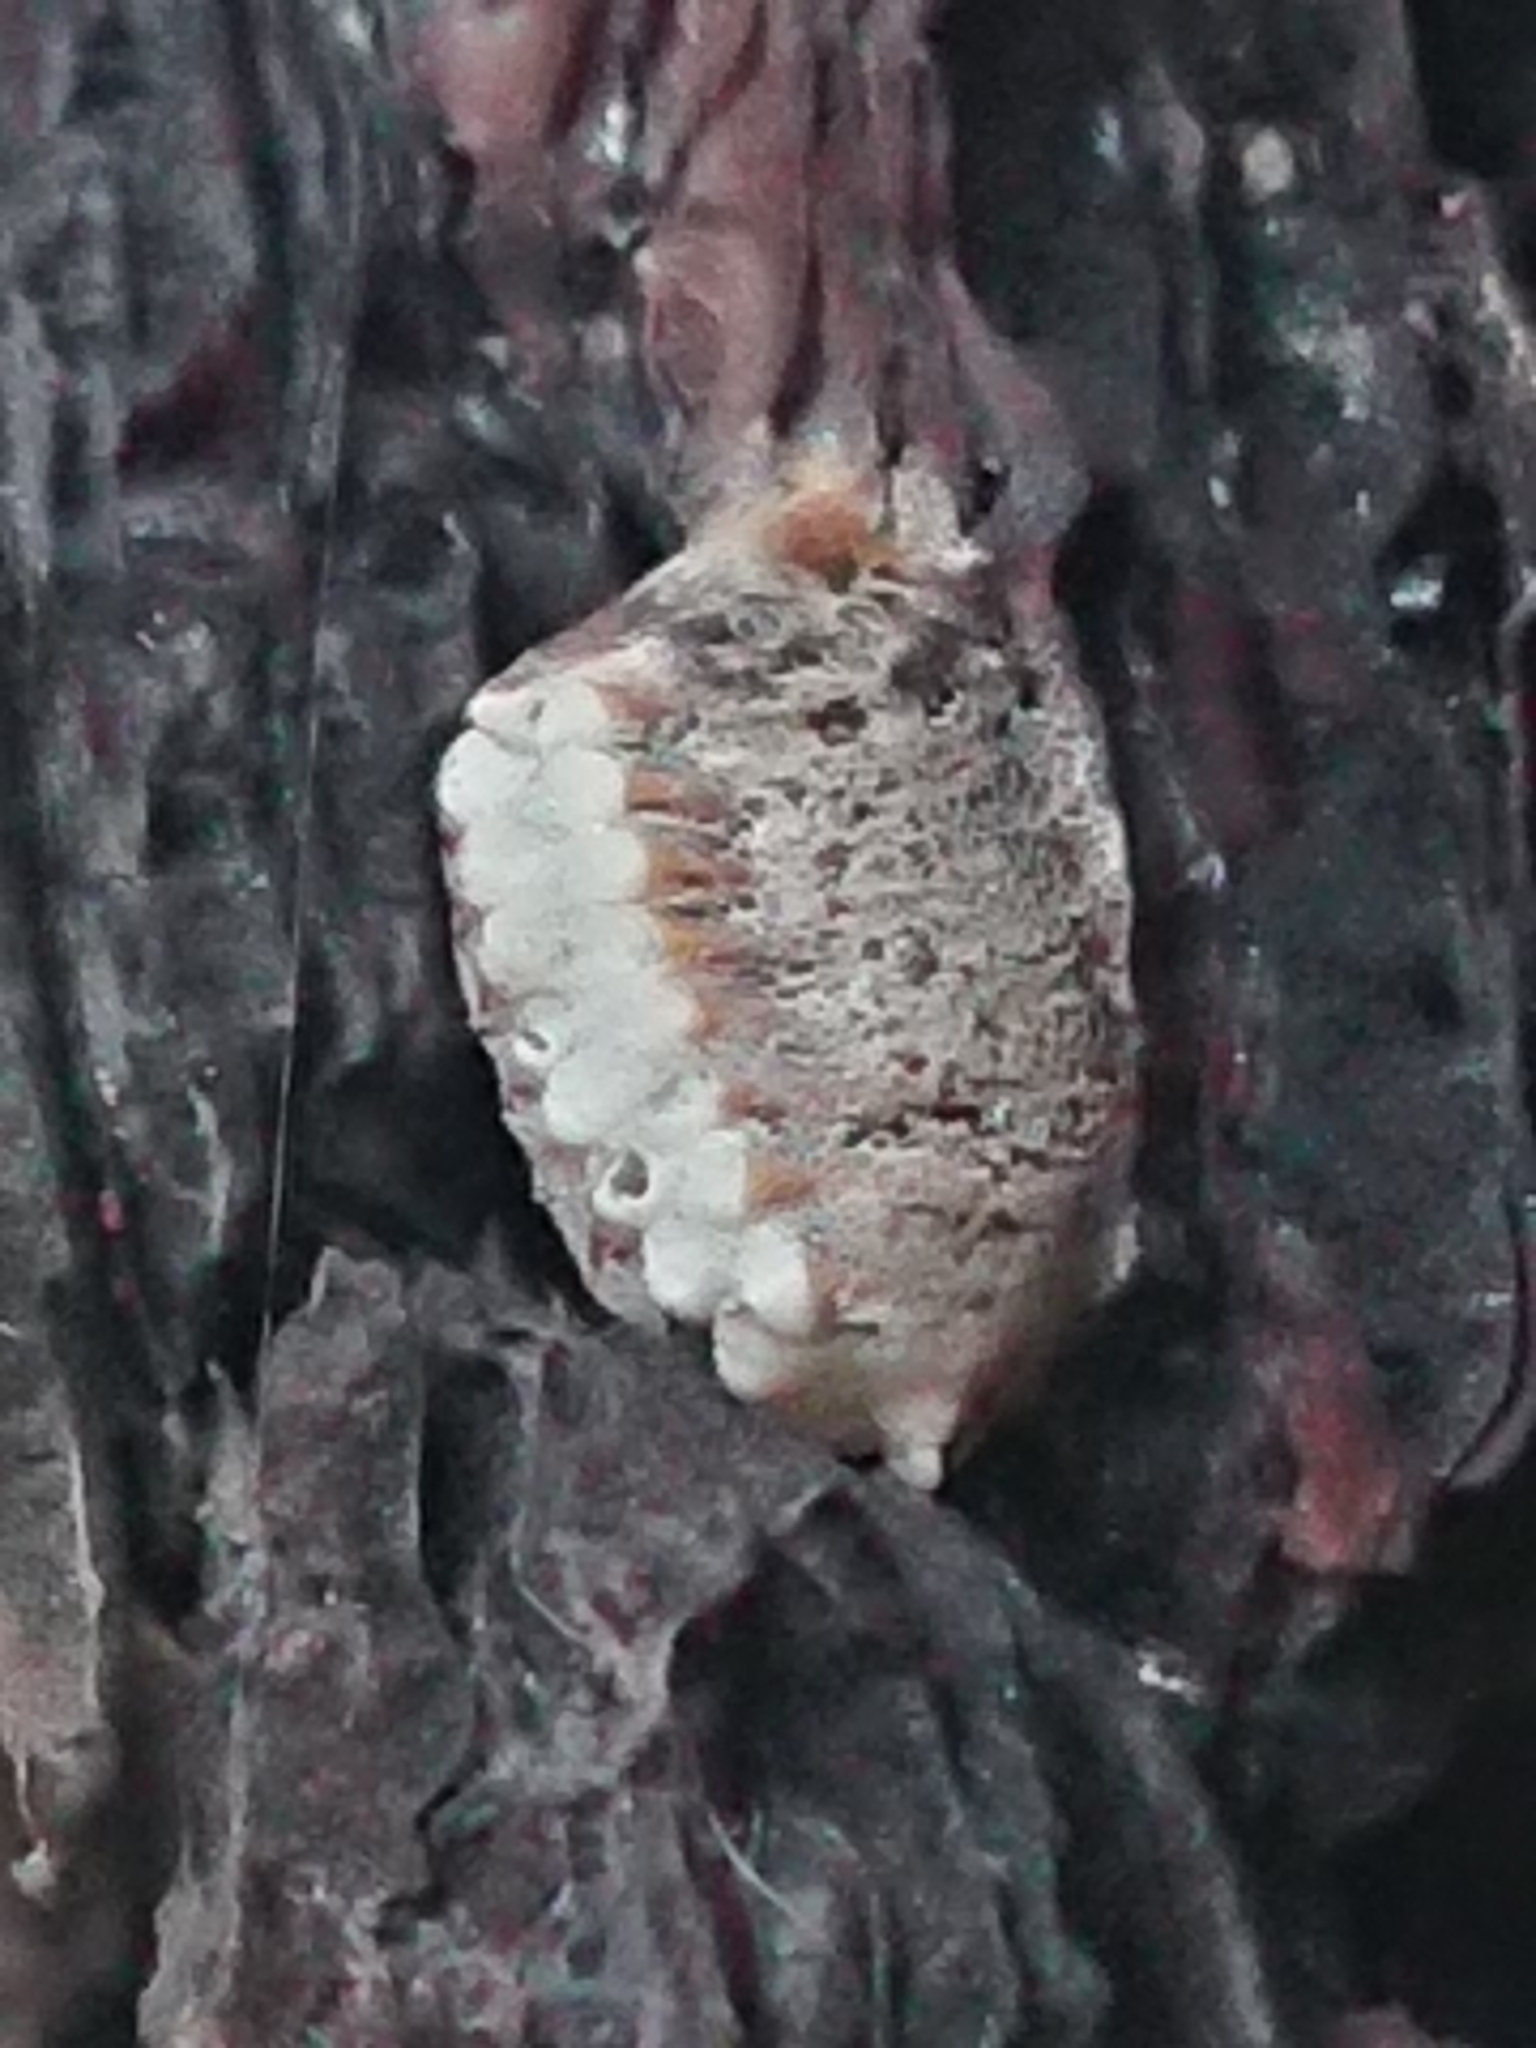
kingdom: Animalia
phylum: Arthropoda
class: Insecta
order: Mantodea
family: Mantidae
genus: Orthodera
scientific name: Orthodera novaezealandiae
